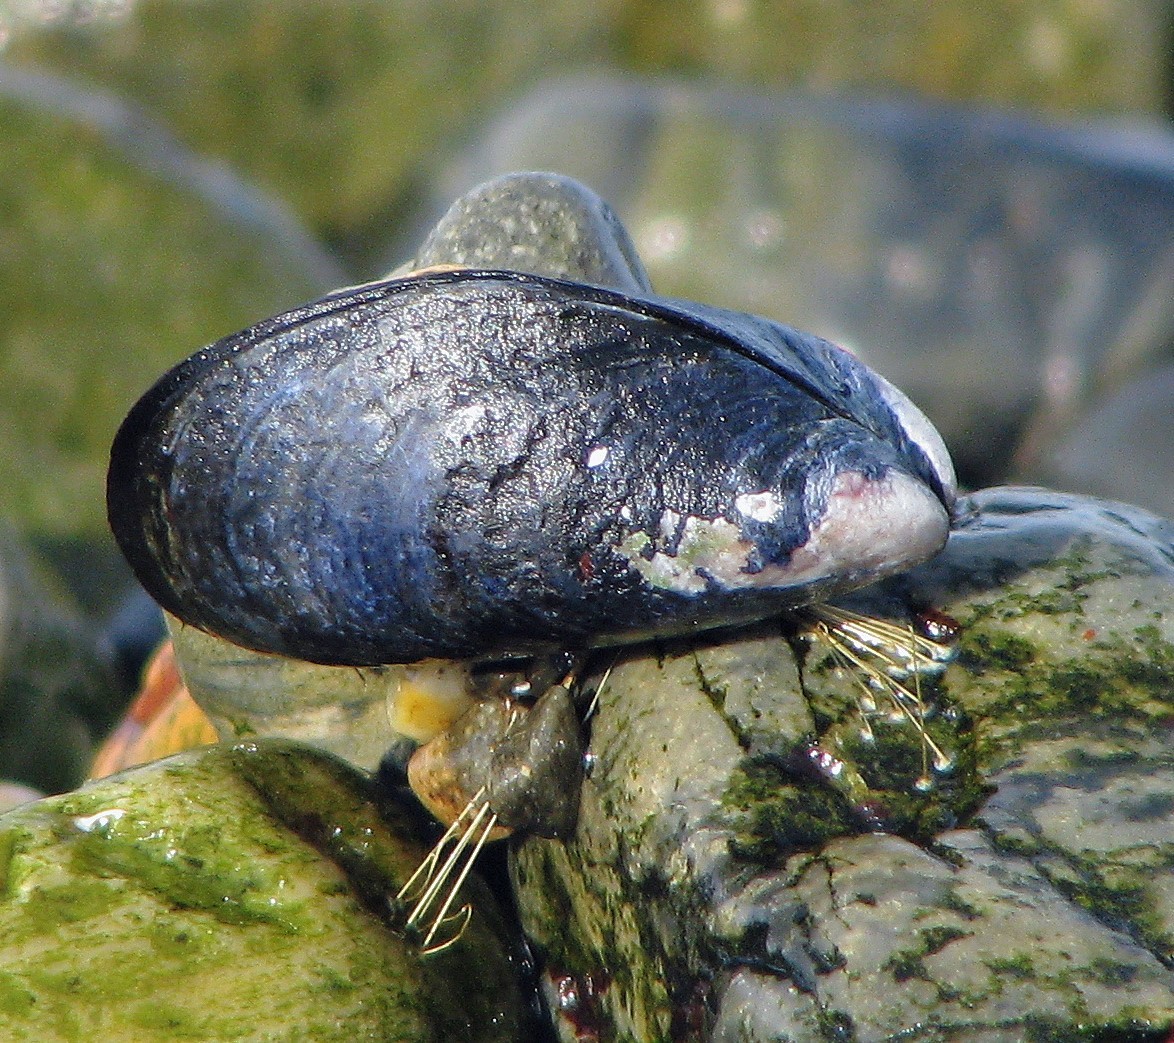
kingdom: Animalia
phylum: Mollusca
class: Bivalvia
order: Mytilida
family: Mytilidae
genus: Mytilus
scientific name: Mytilus chilensis
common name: Chilean mussel
